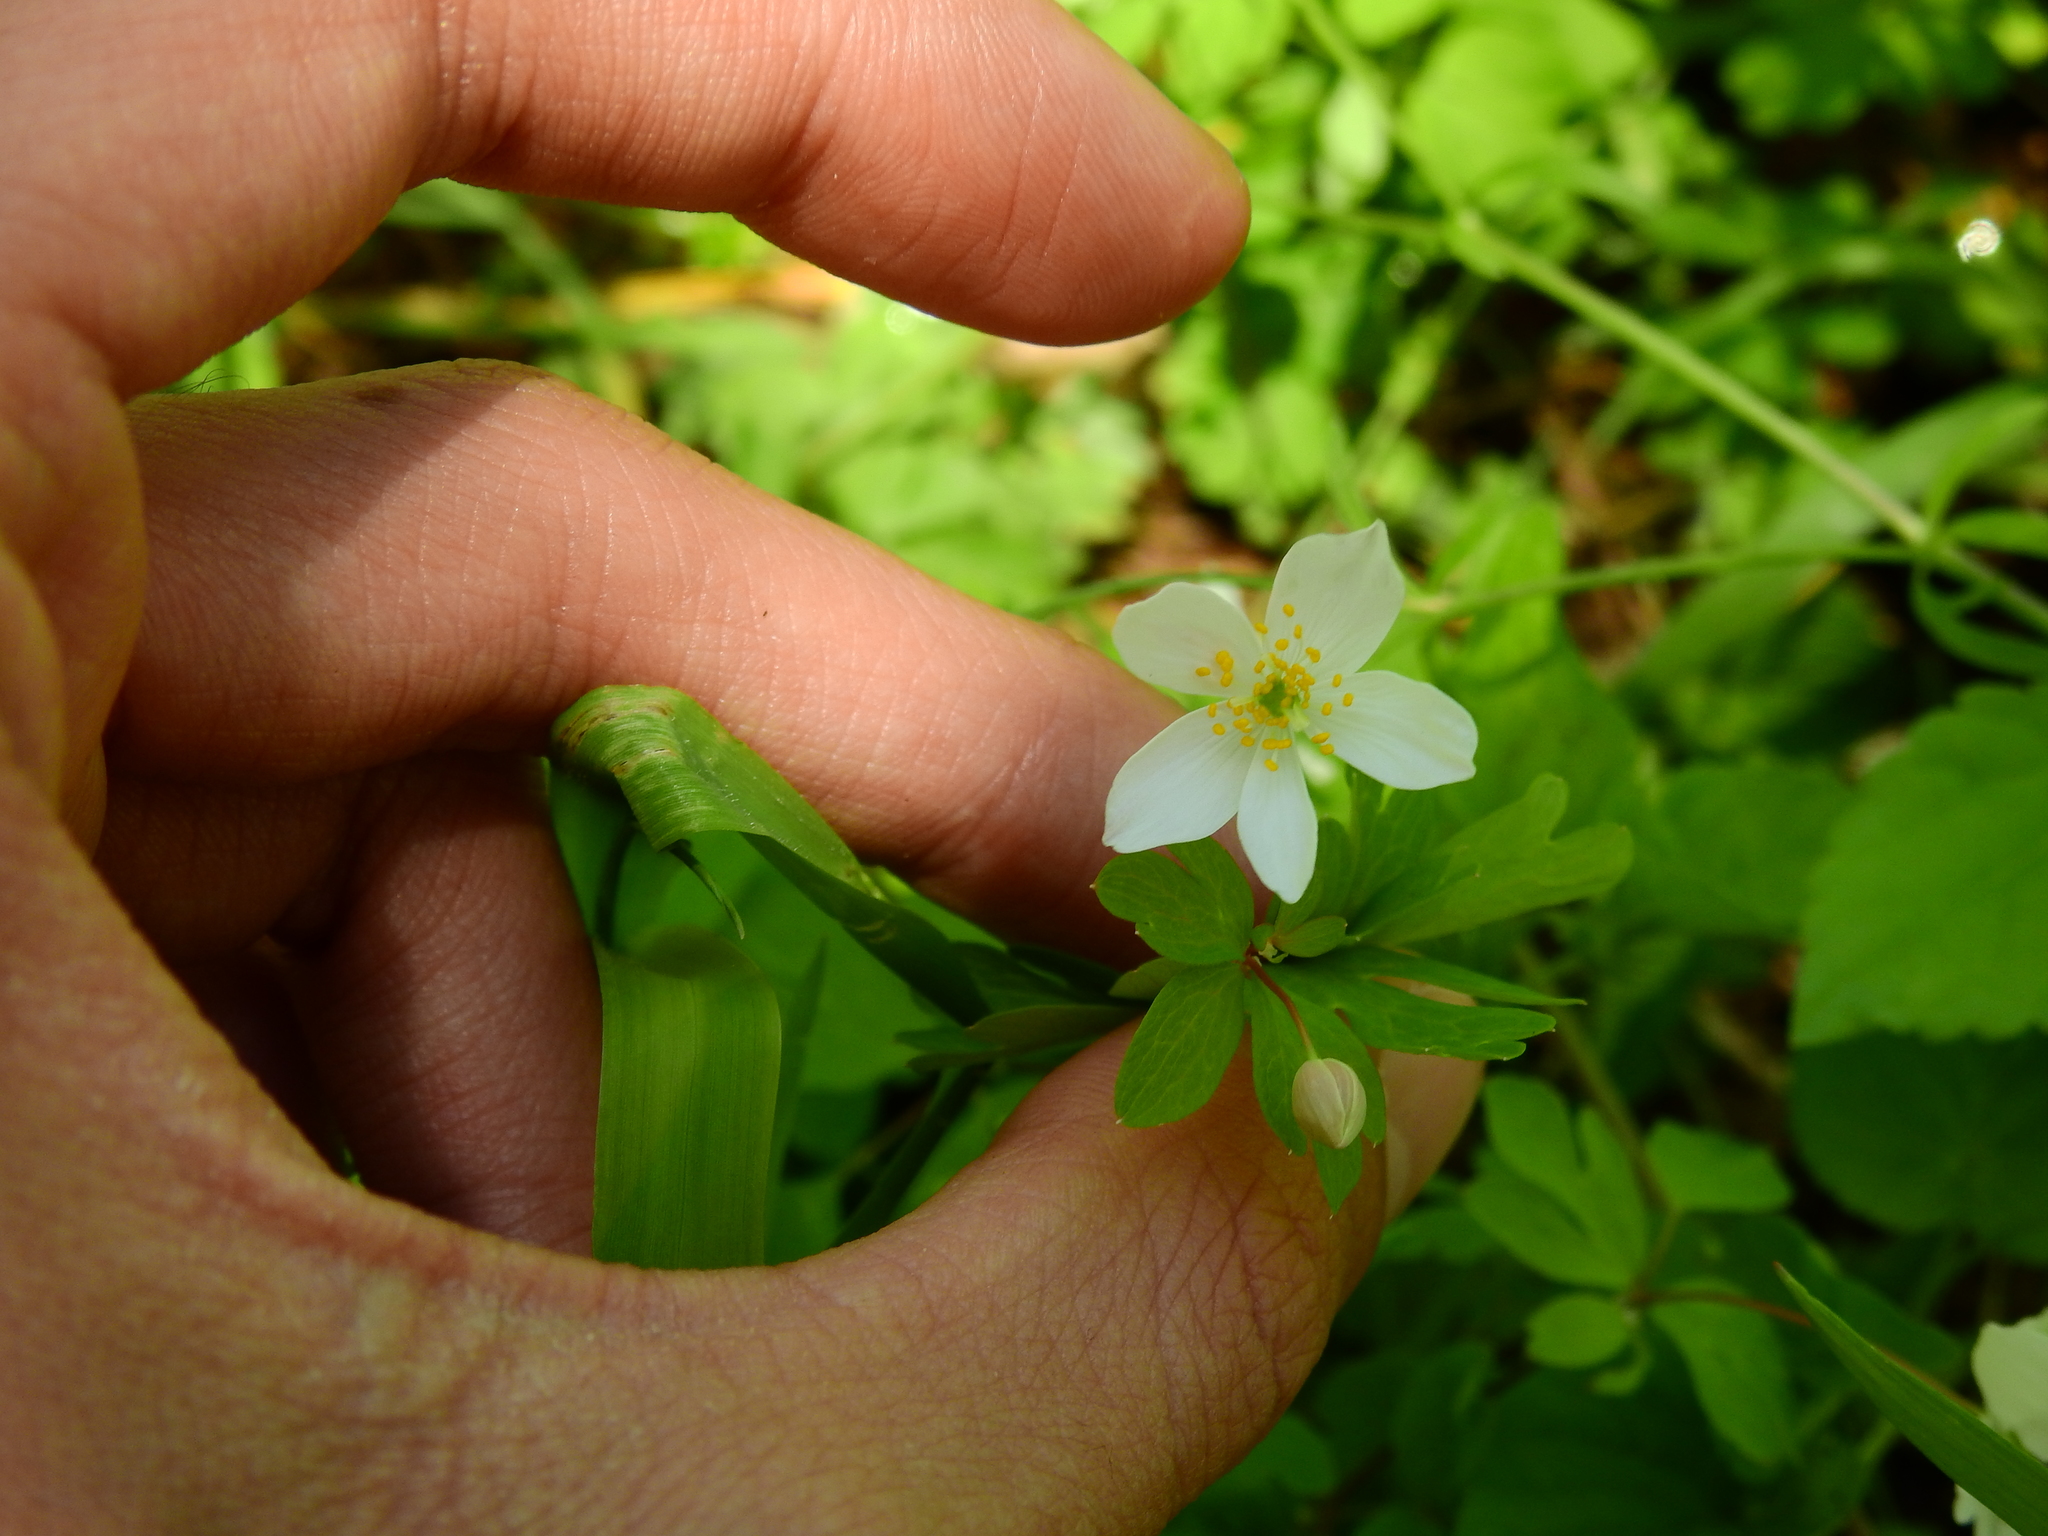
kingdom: Plantae
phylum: Tracheophyta
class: Magnoliopsida
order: Ranunculales
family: Ranunculaceae
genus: Enemion
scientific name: Enemion biternatum
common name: Eastern false rue-anemone
